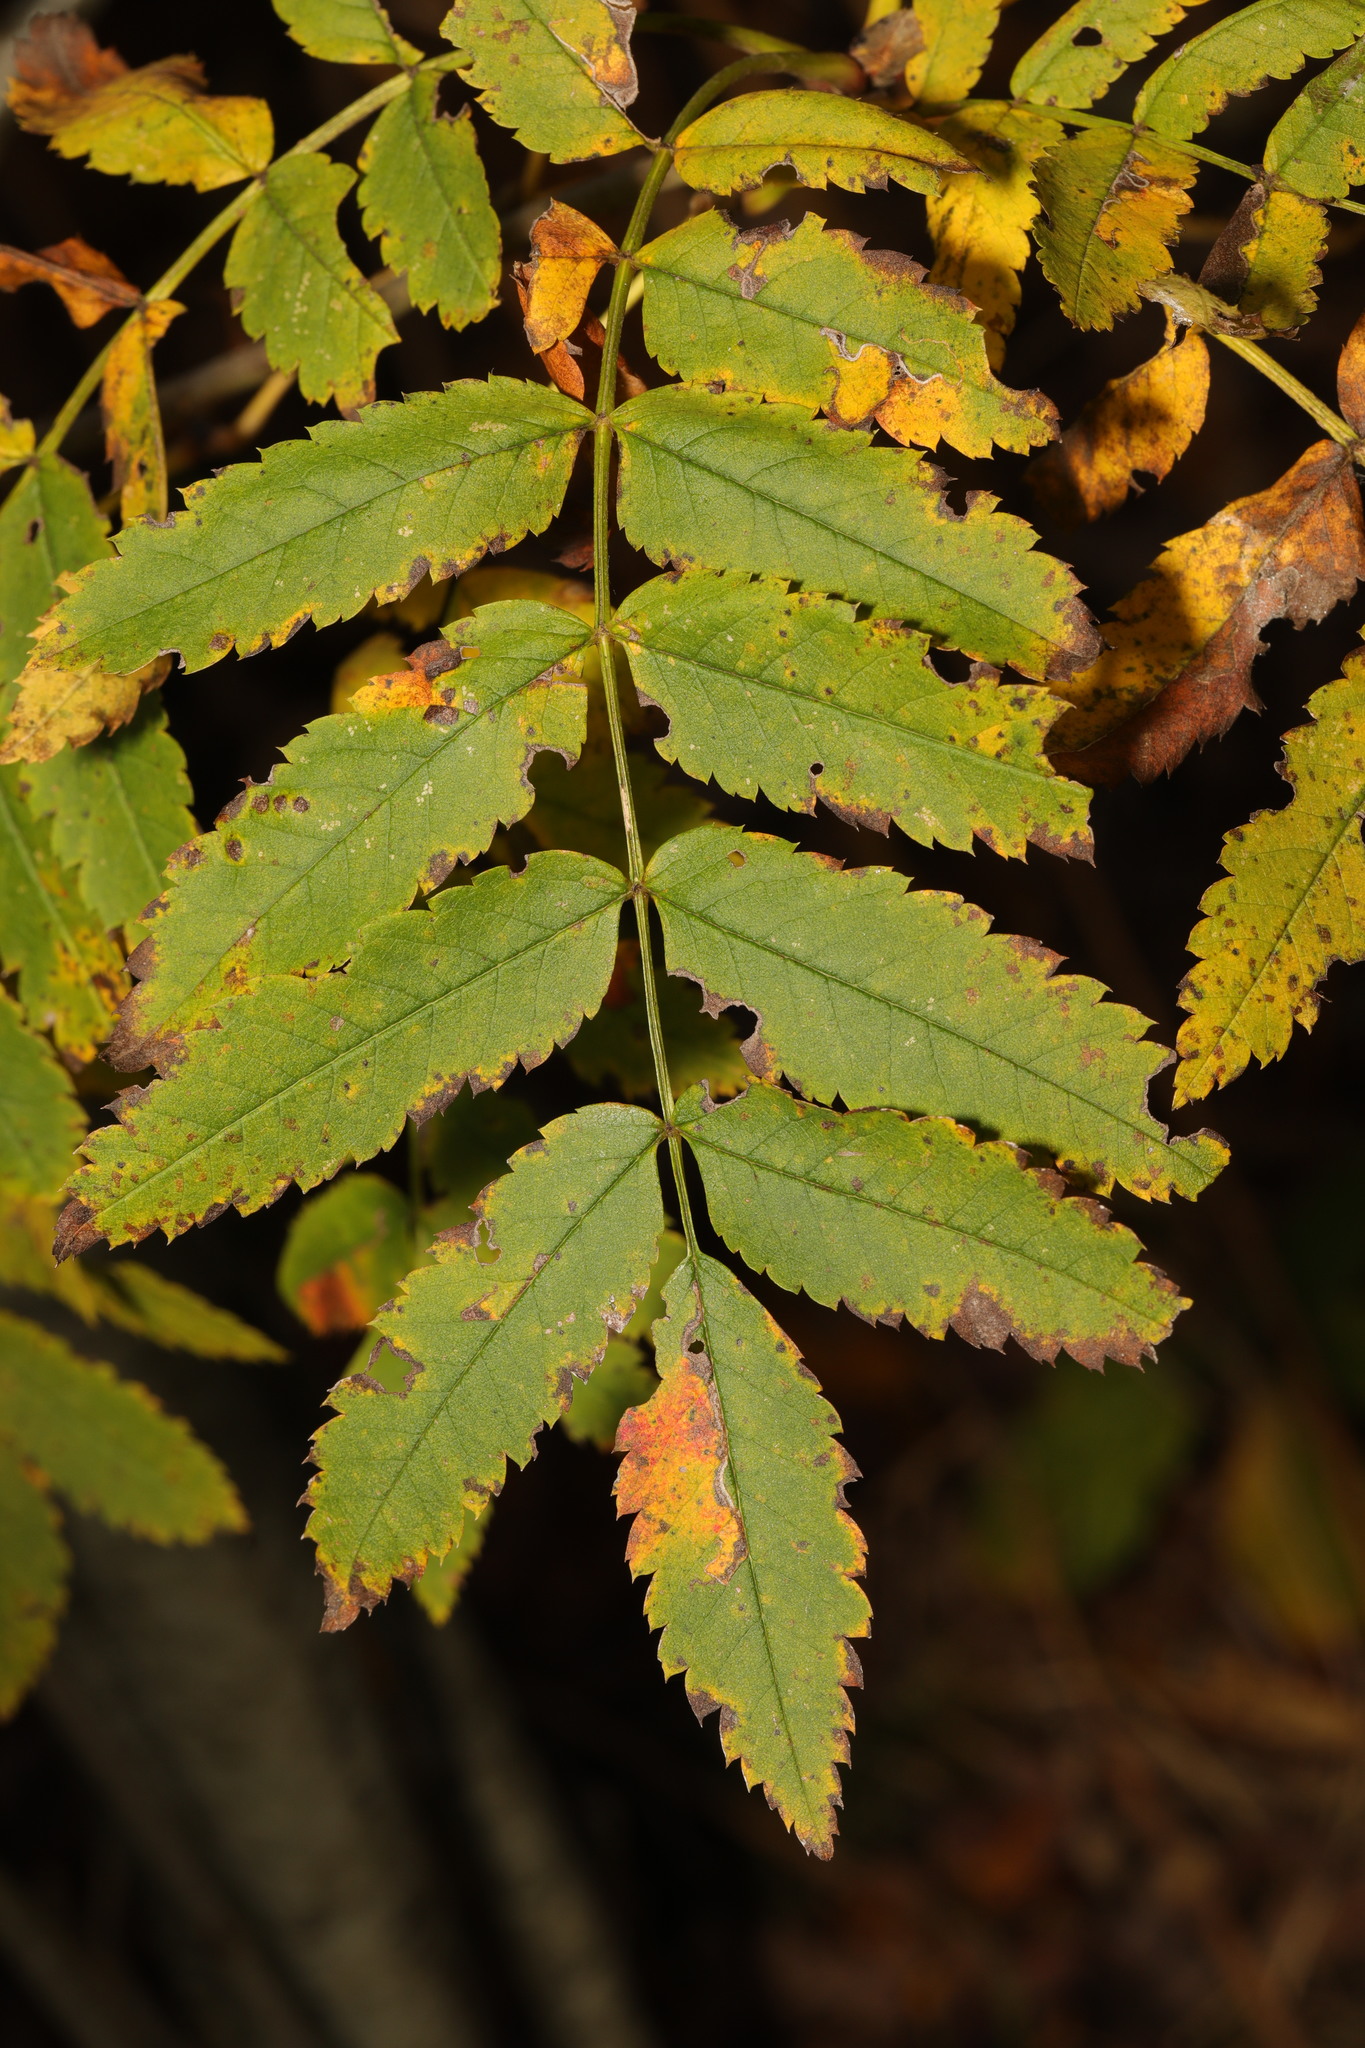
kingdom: Plantae
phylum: Tracheophyta
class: Magnoliopsida
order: Rosales
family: Rosaceae
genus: Sorbus
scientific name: Sorbus aucuparia
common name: Rowan
